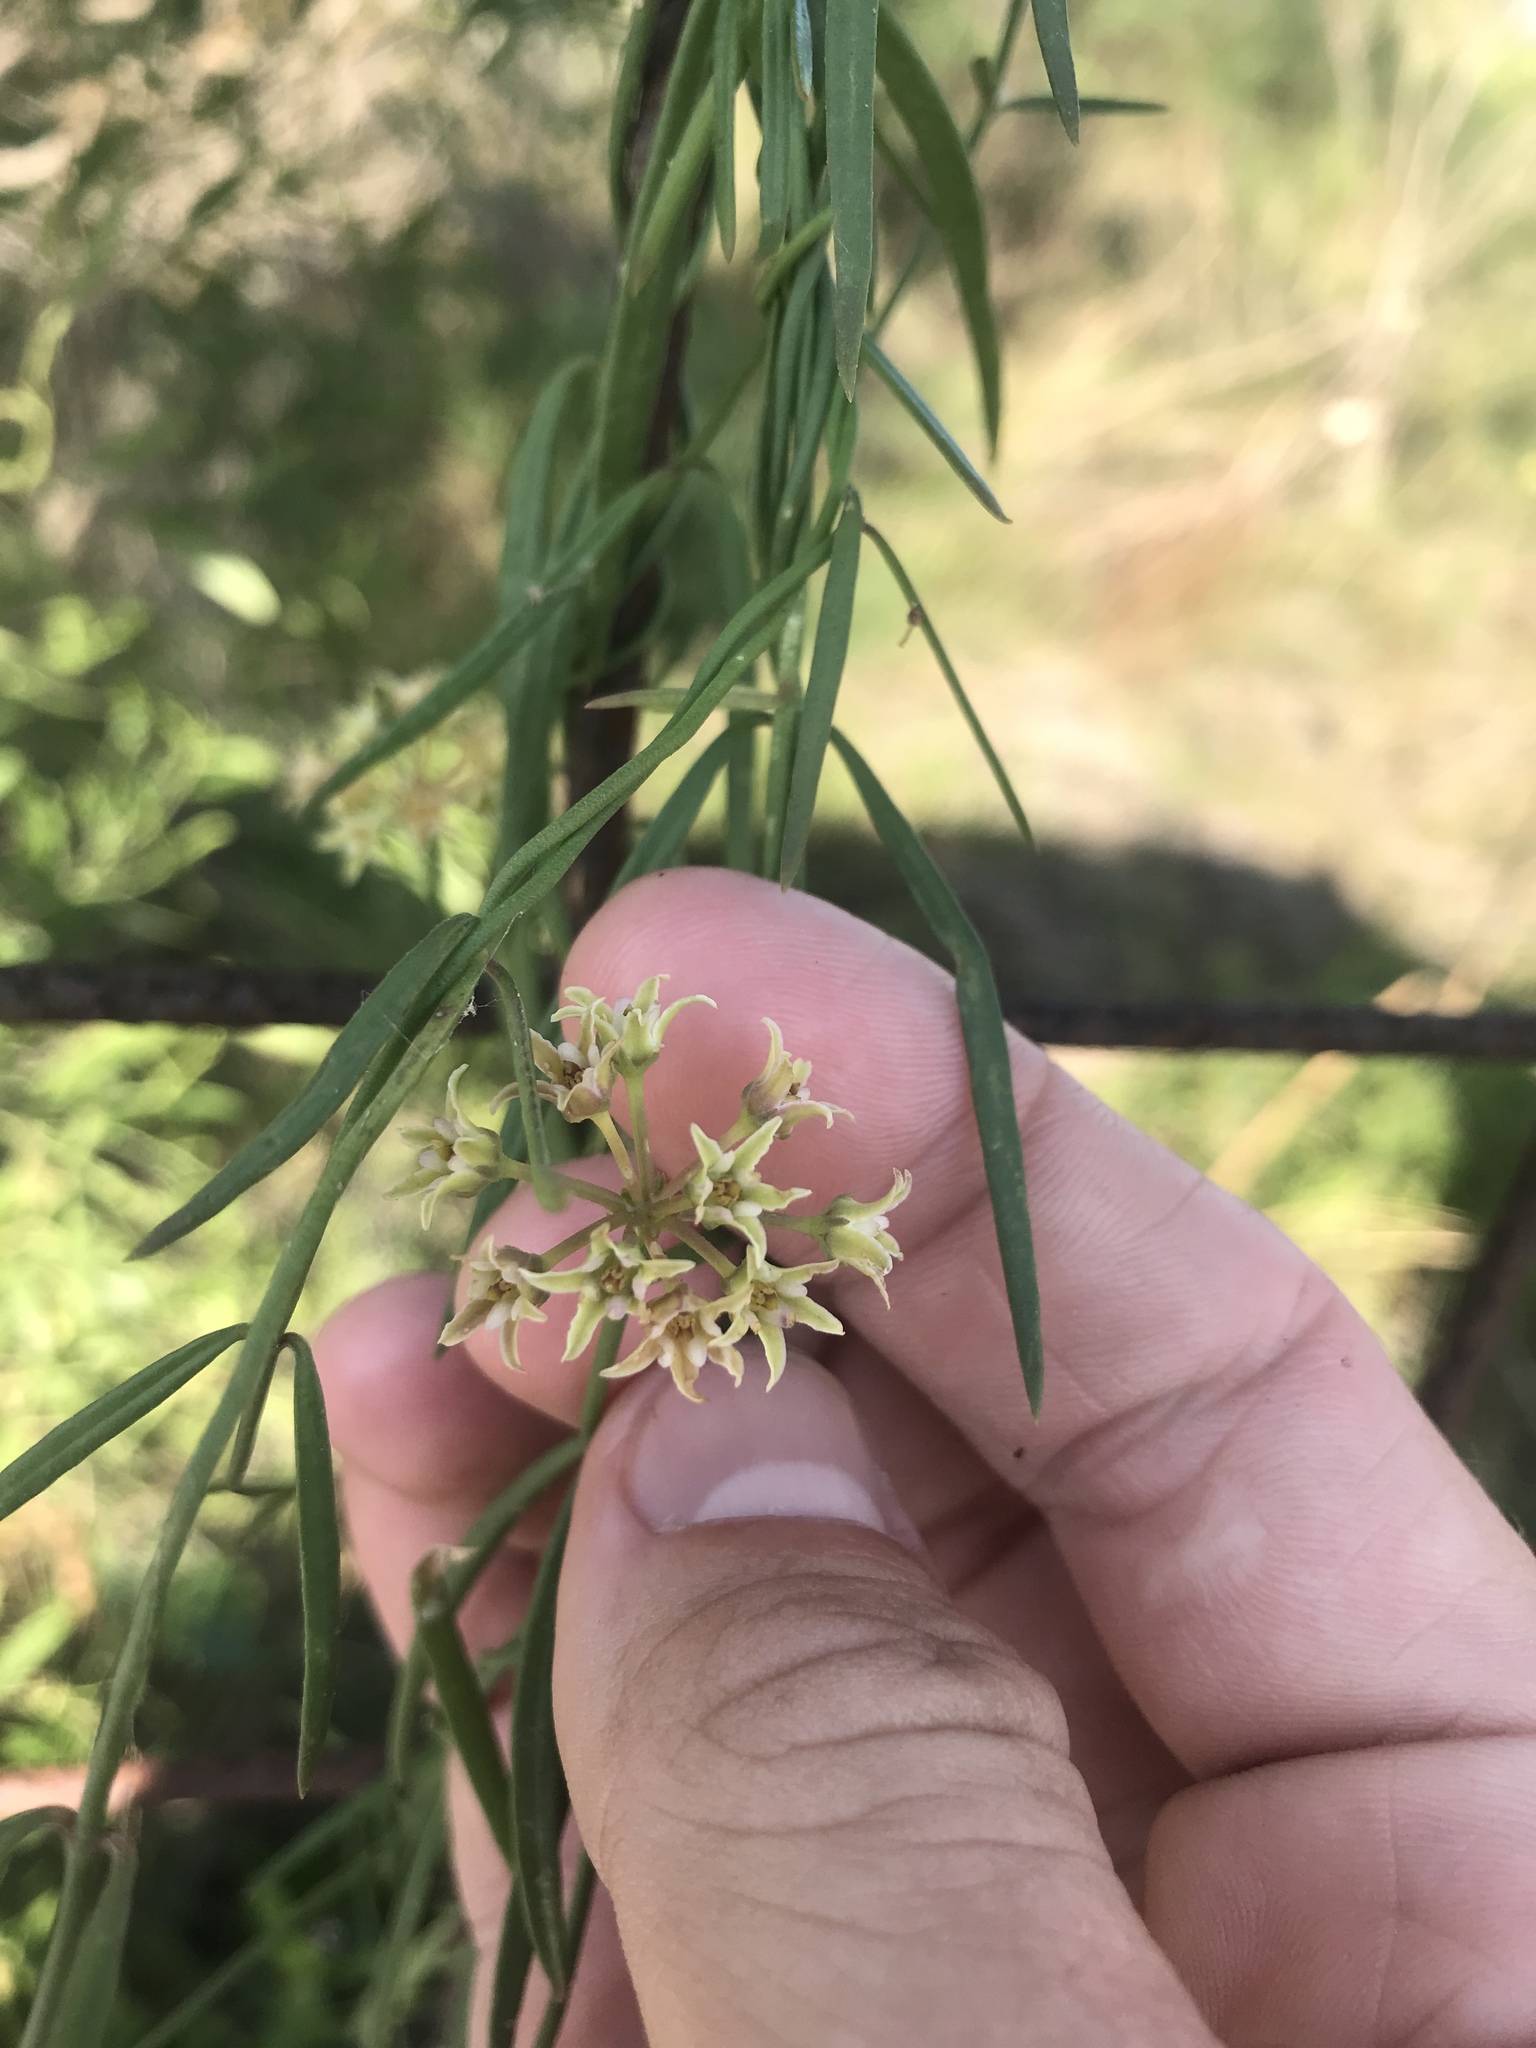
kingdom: Plantae
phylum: Tracheophyta
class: Magnoliopsida
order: Gentianales
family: Apocynaceae
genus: Pattalias
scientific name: Pattalias
